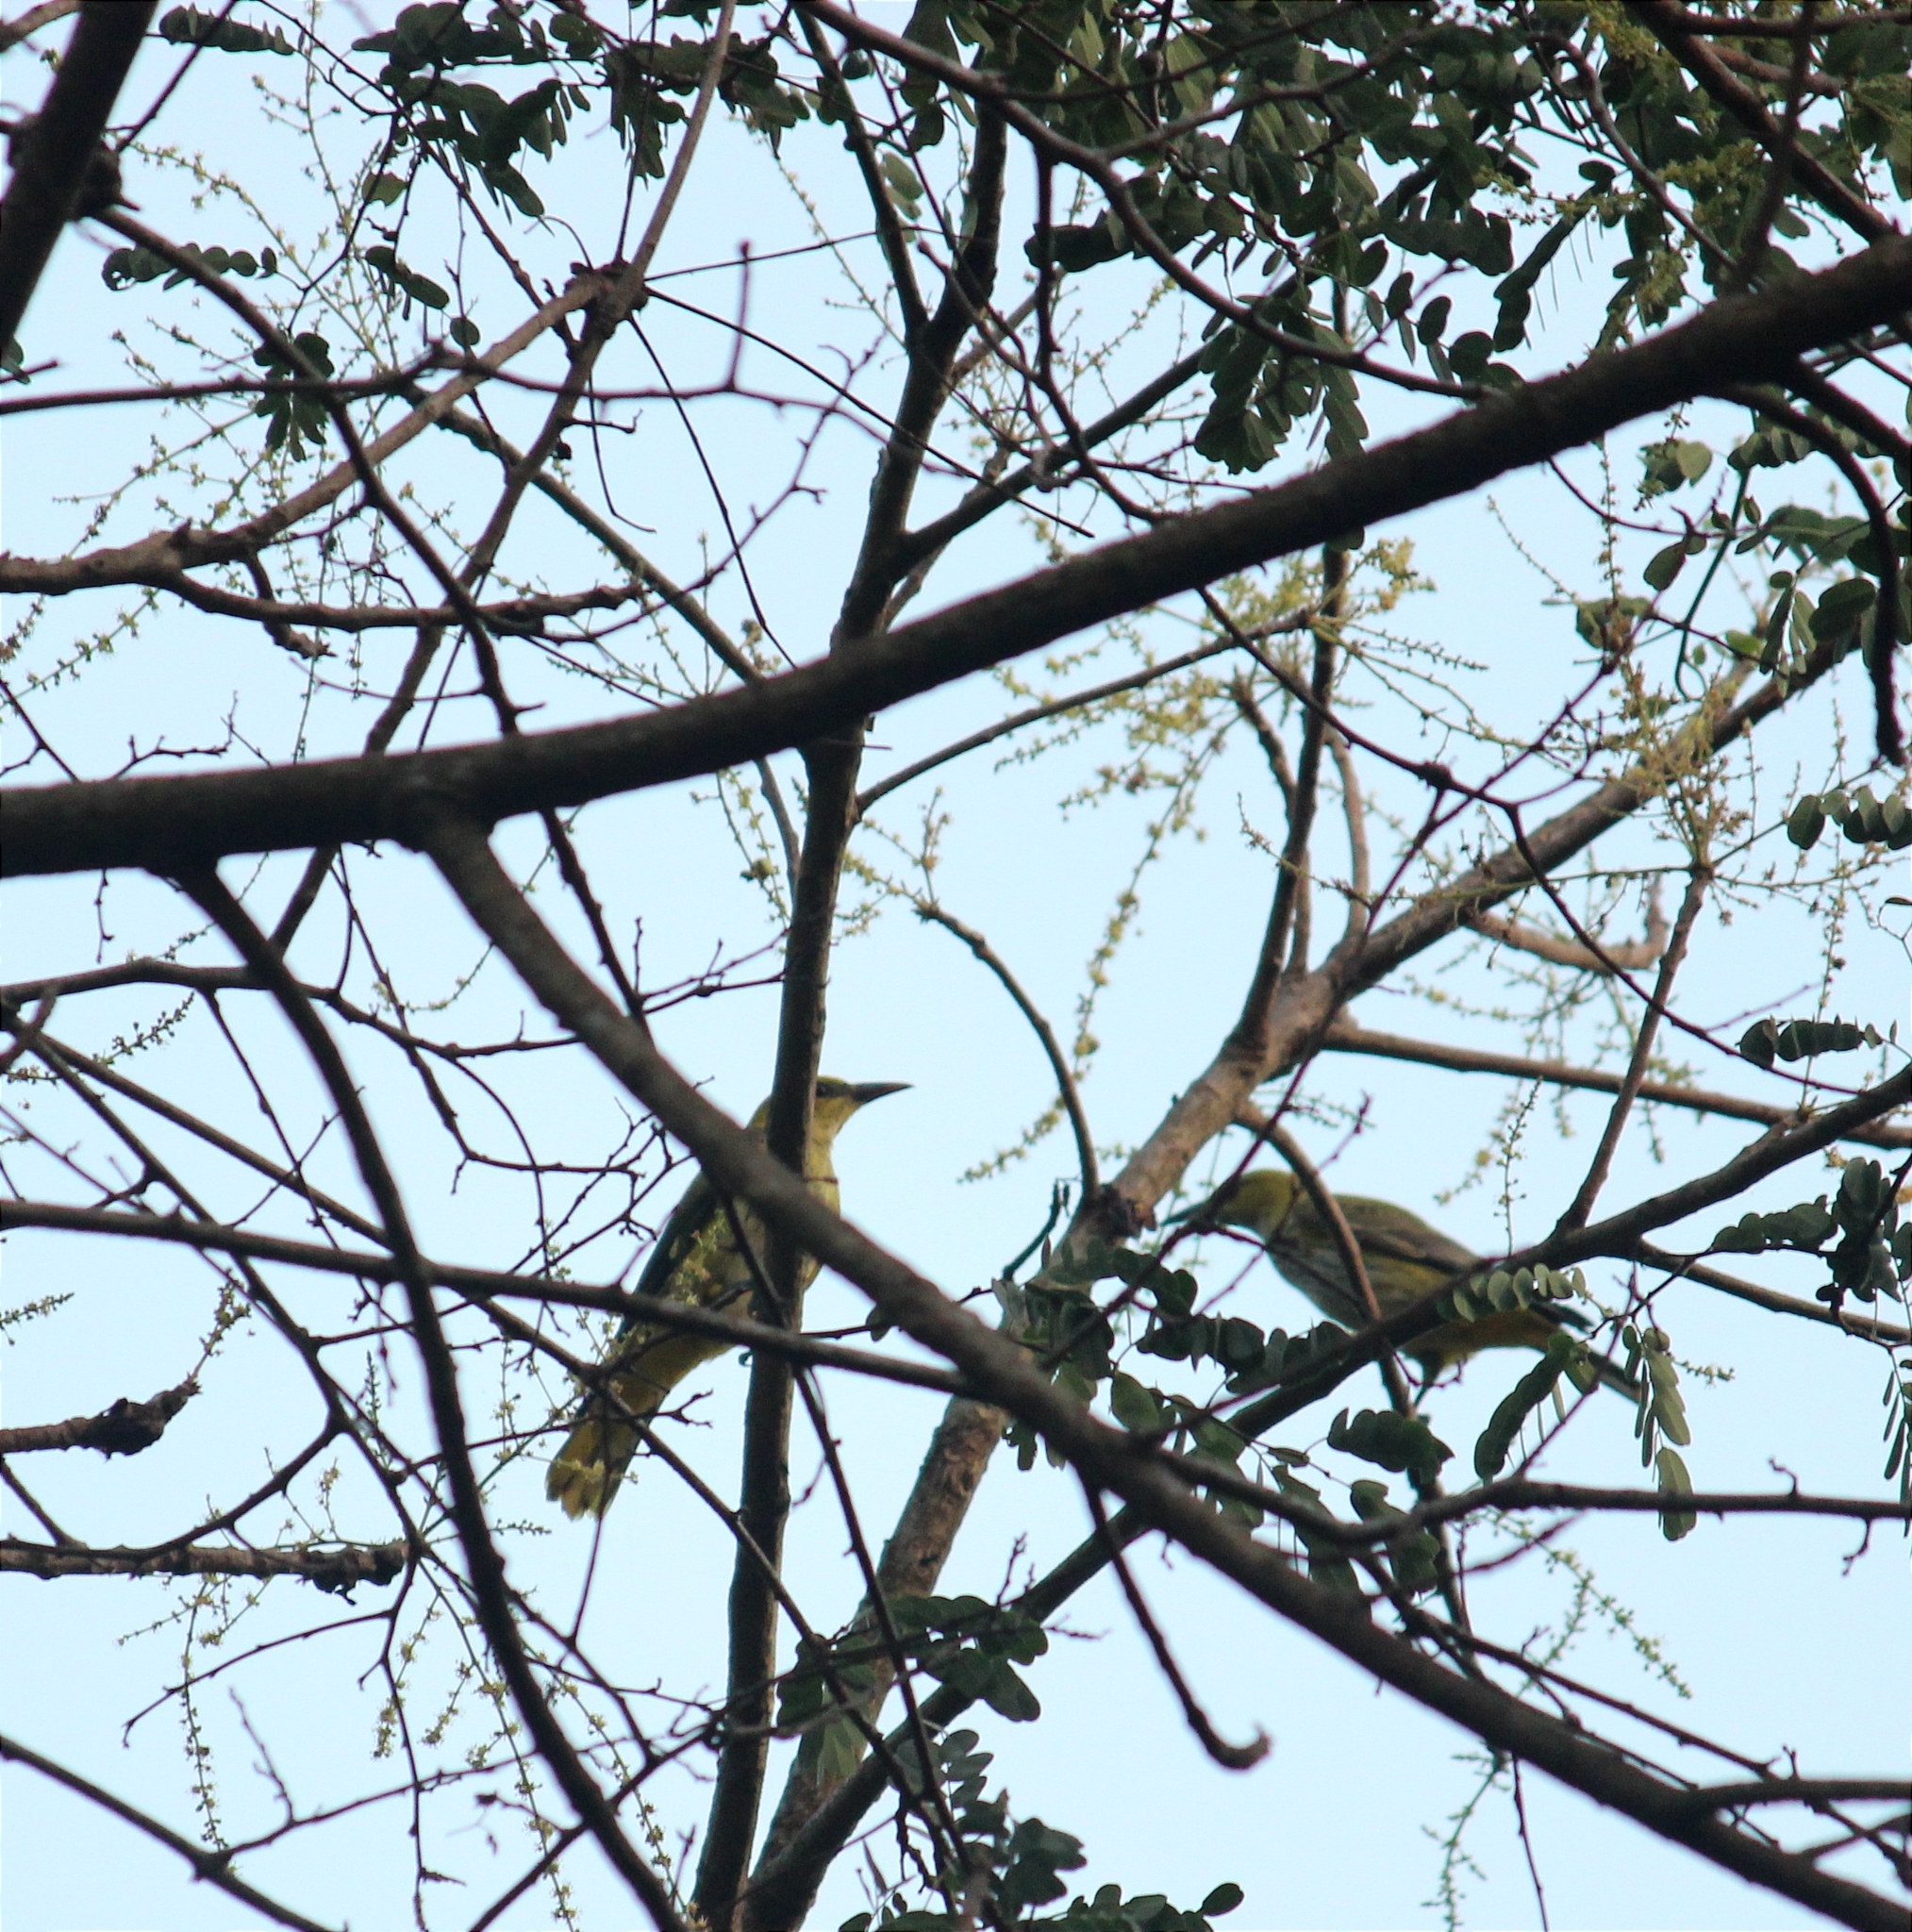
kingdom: Animalia
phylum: Chordata
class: Aves
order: Passeriformes
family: Oriolidae
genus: Oriolus
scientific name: Oriolus kundoo
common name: Indian golden oriole
